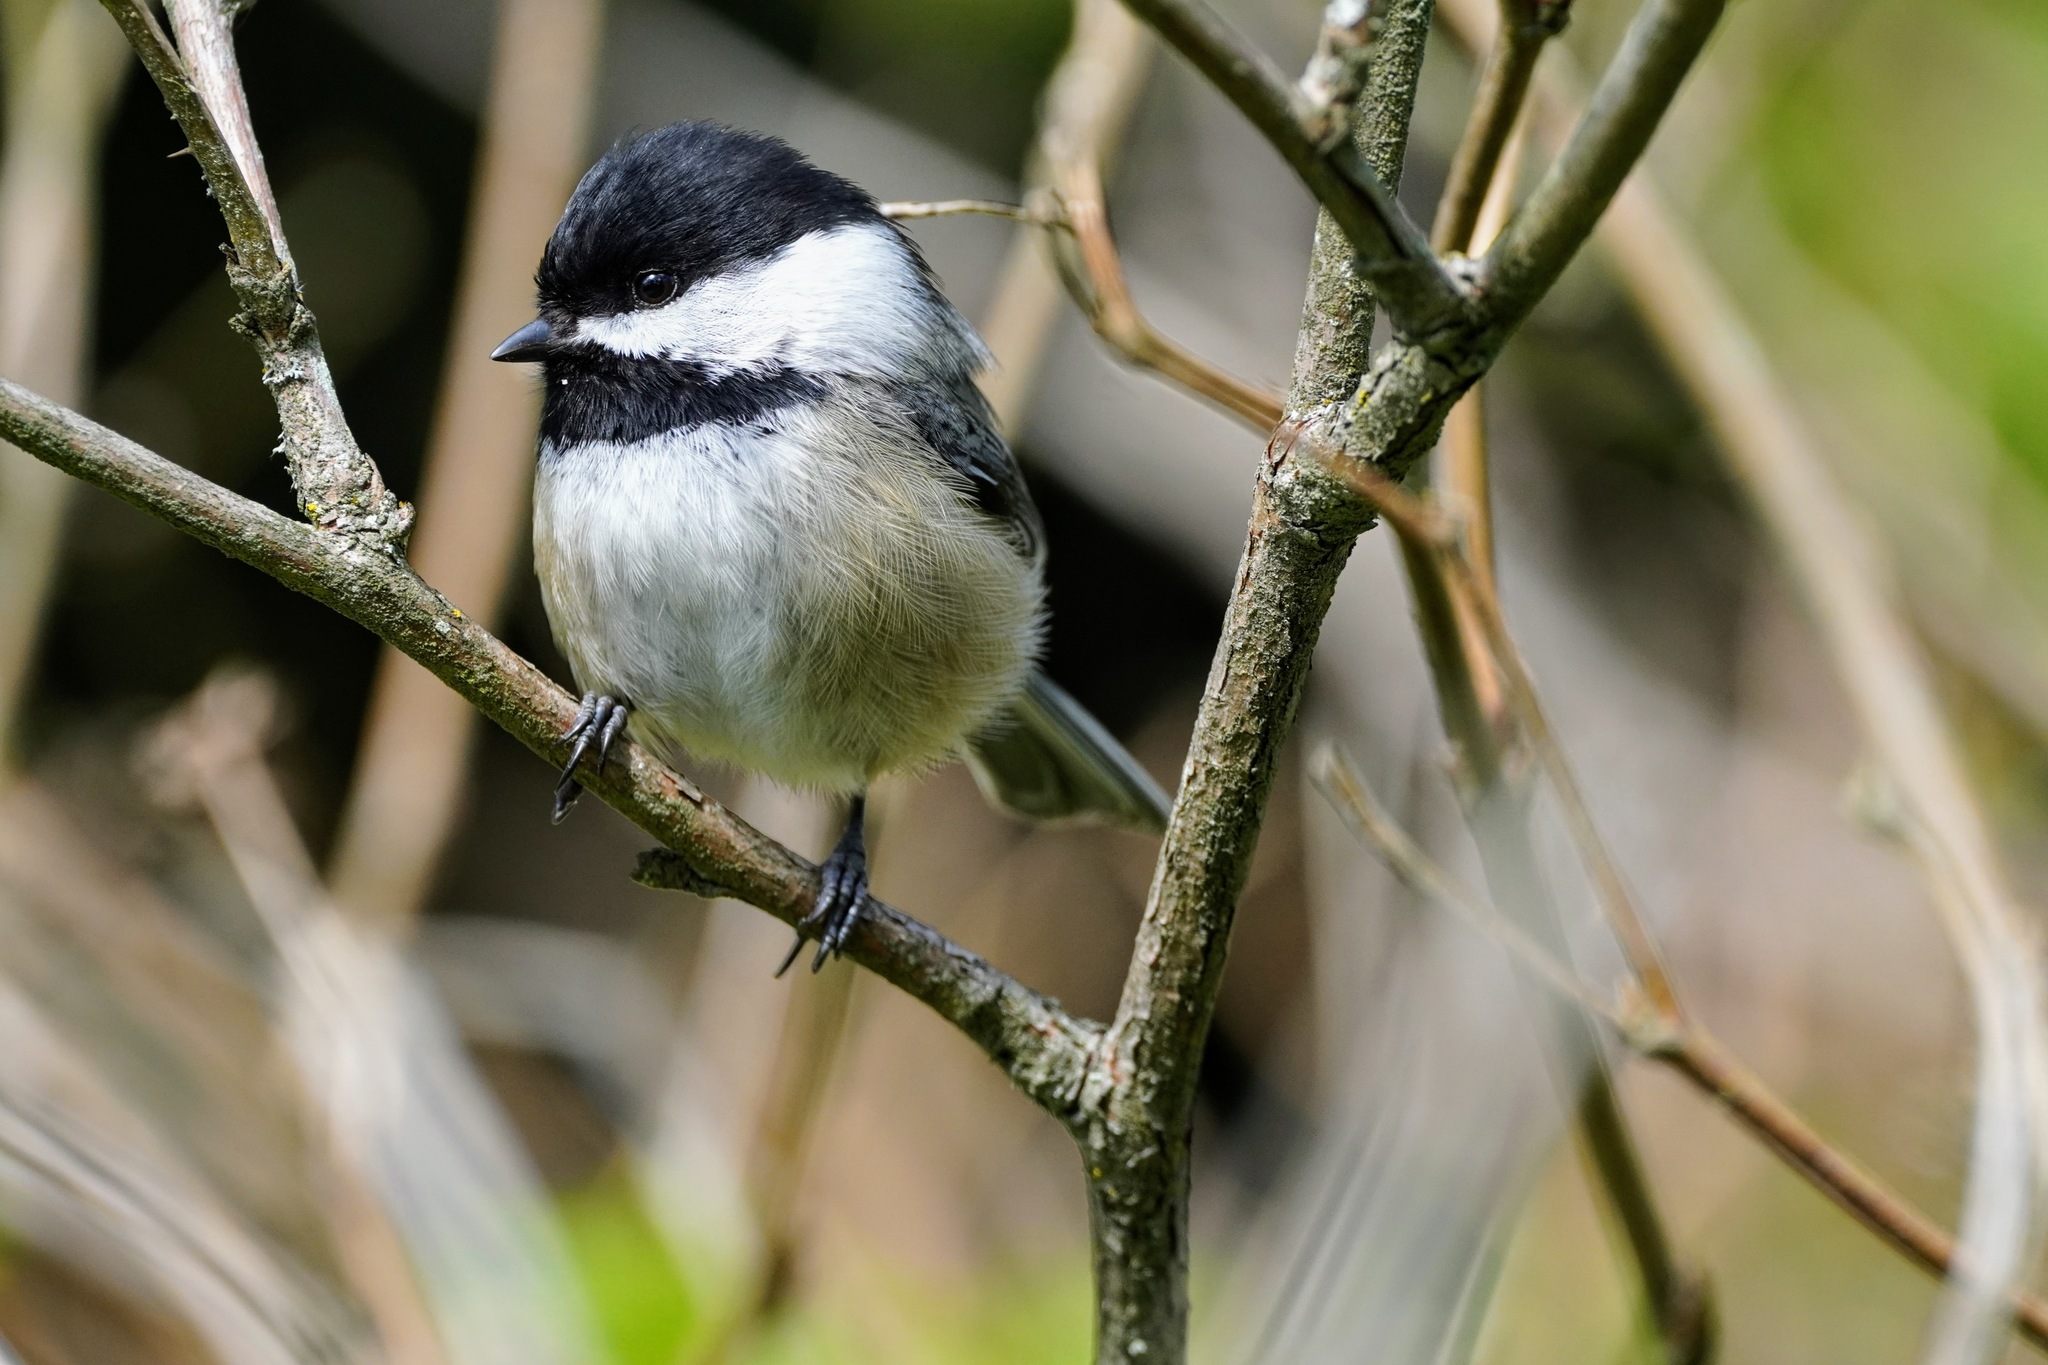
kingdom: Animalia
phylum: Chordata
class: Aves
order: Passeriformes
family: Paridae
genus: Poecile
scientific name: Poecile atricapillus
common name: Black-capped chickadee
